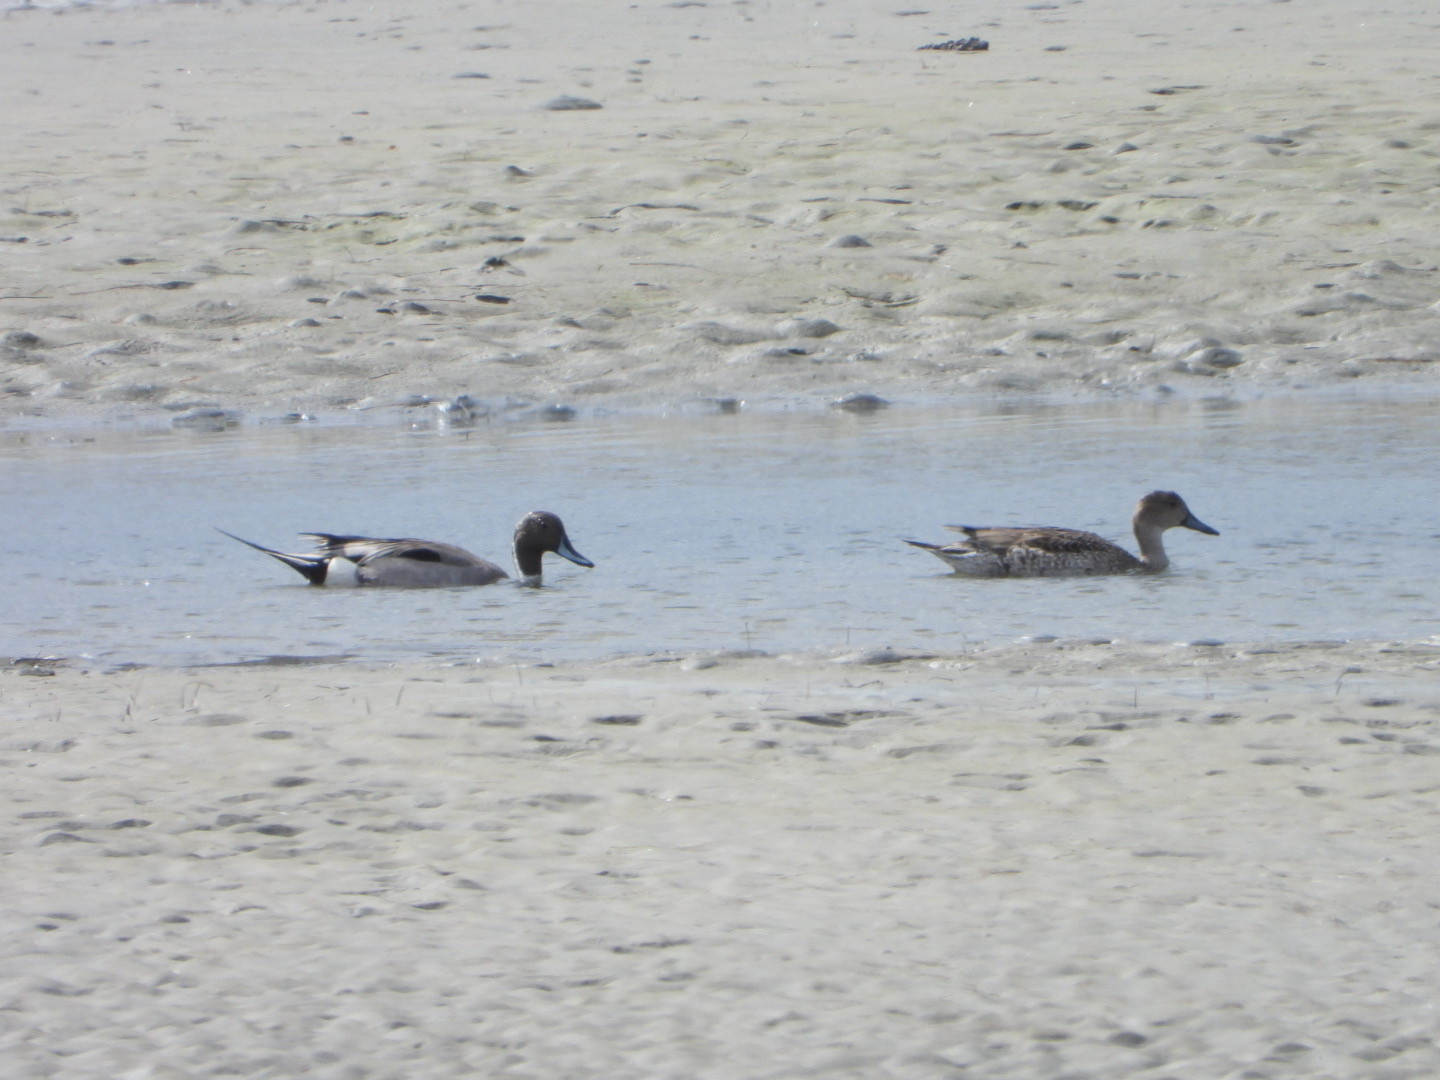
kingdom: Animalia
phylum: Chordata
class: Aves
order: Anseriformes
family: Anatidae
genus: Anas
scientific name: Anas acuta
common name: Northern pintail
